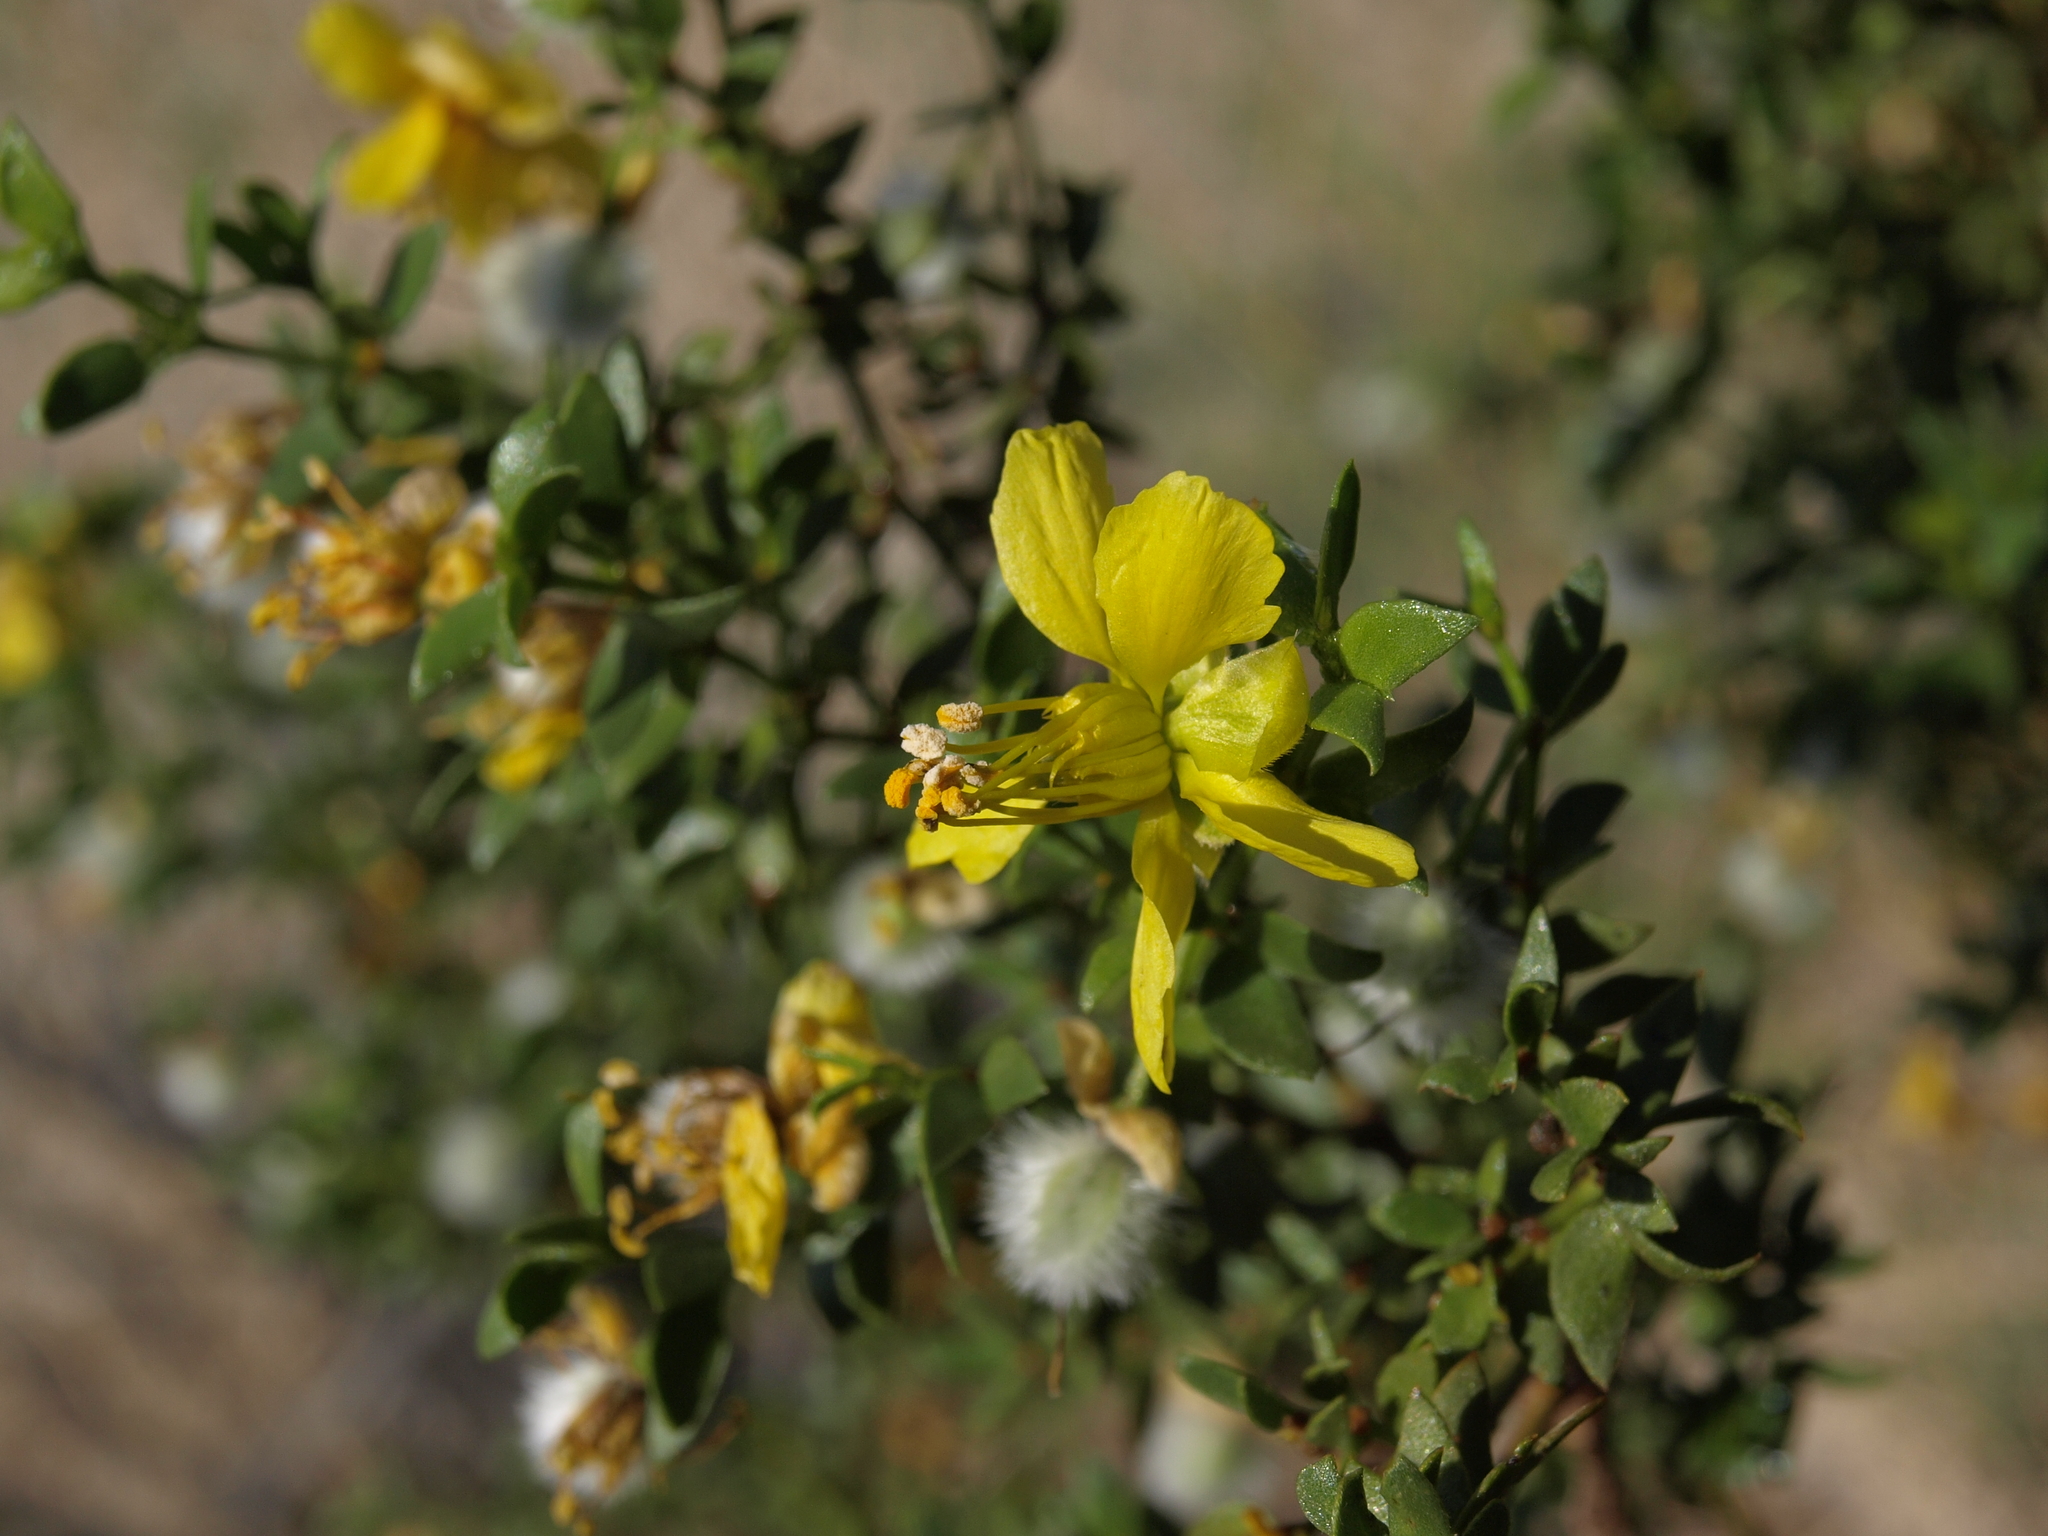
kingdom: Plantae
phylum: Tracheophyta
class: Magnoliopsida
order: Zygophyllales
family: Zygophyllaceae
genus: Larrea
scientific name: Larrea tridentata
